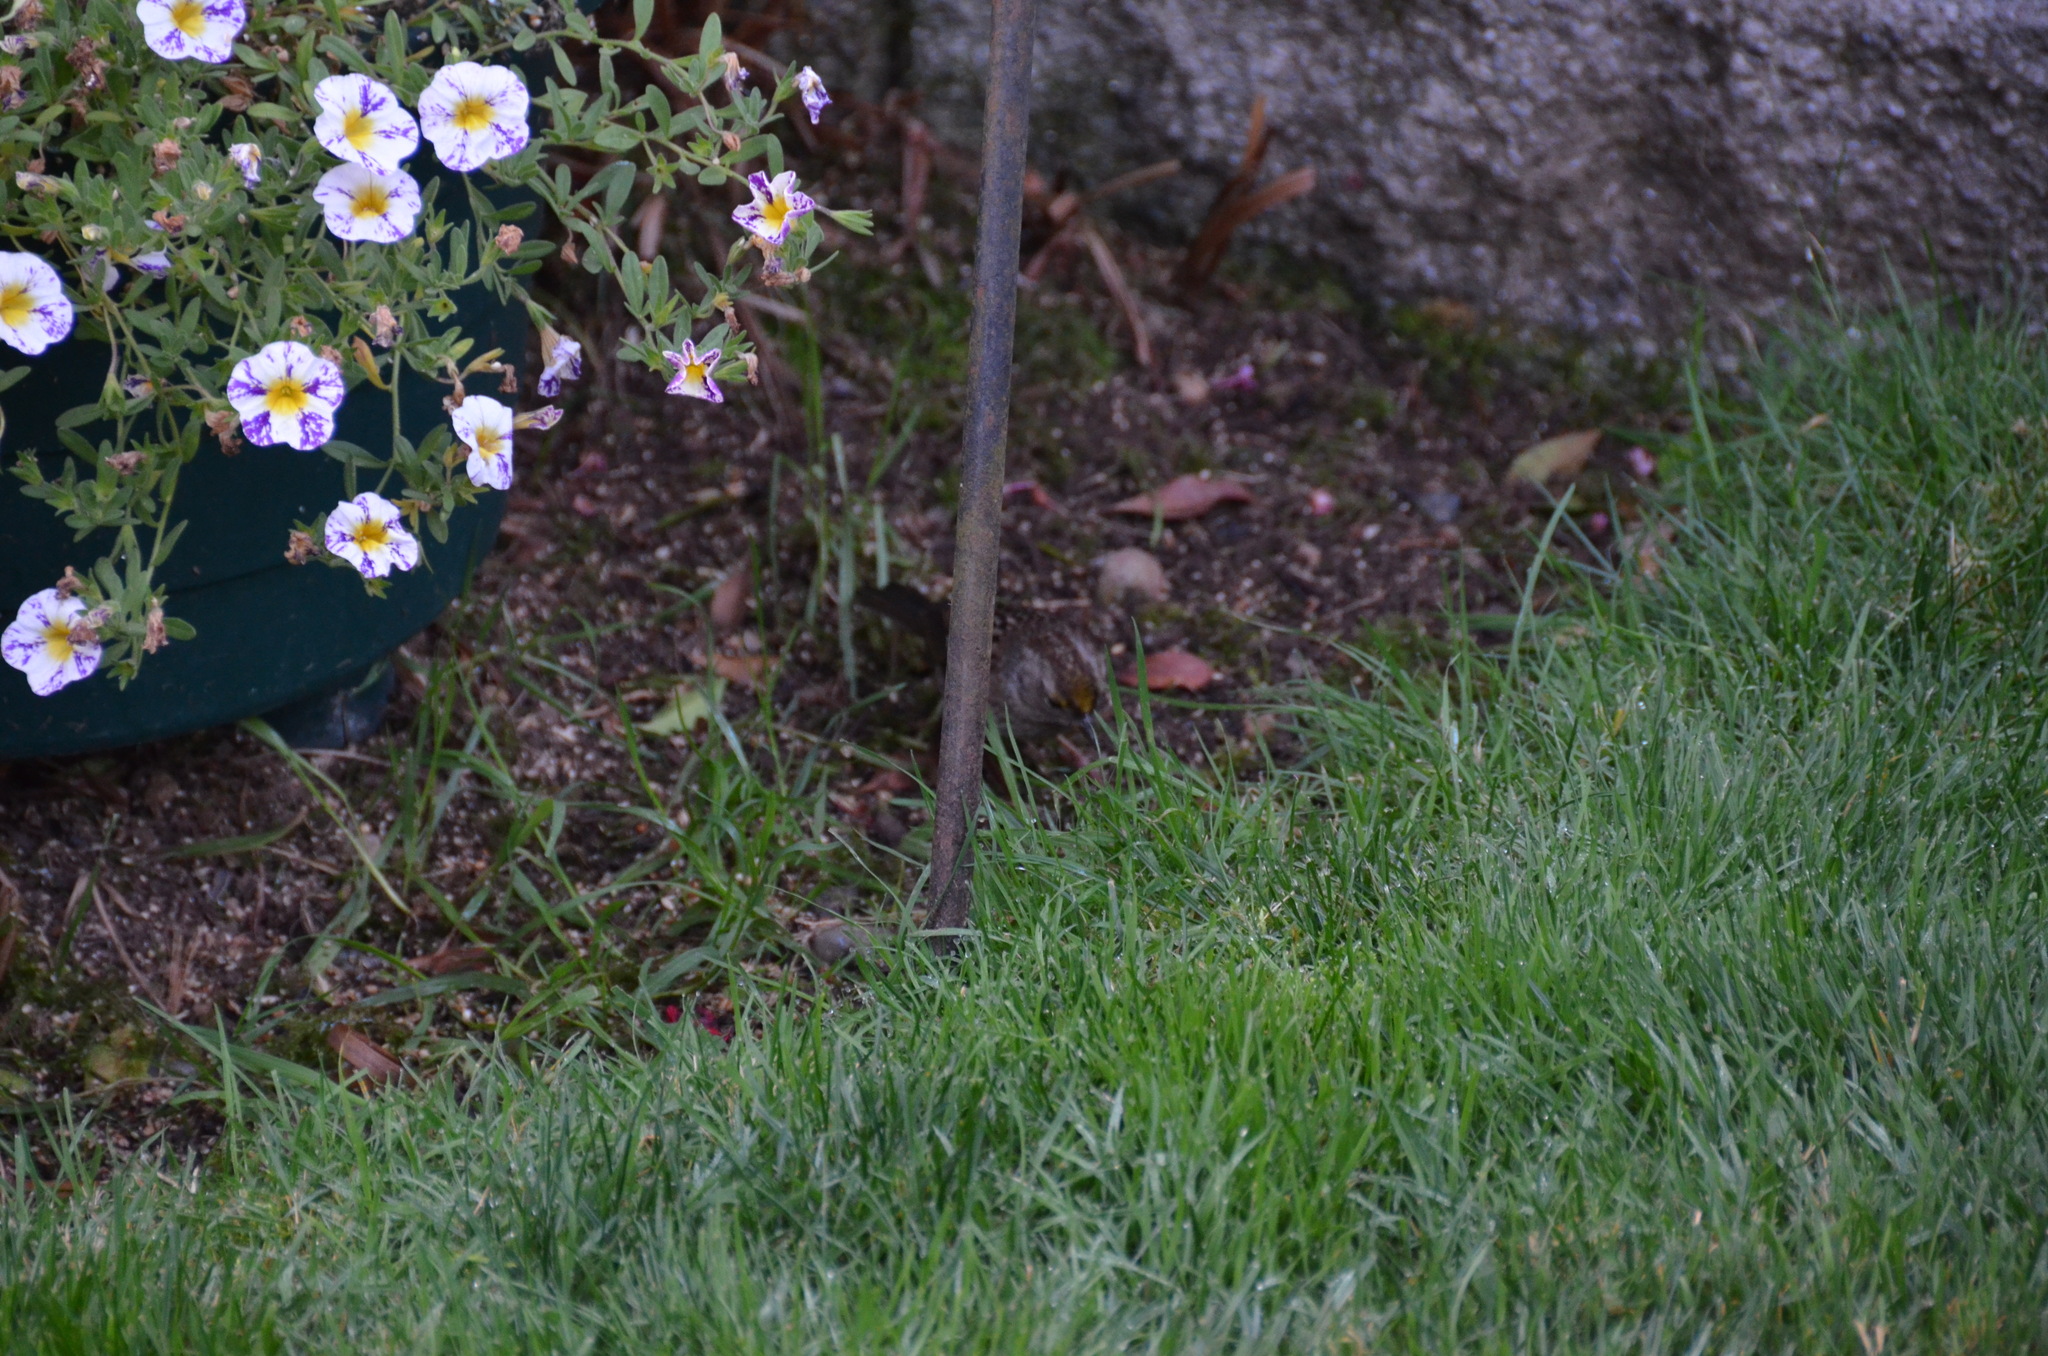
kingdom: Animalia
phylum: Chordata
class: Aves
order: Passeriformes
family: Passerellidae
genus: Zonotrichia
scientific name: Zonotrichia atricapilla
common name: Golden-crowned sparrow
